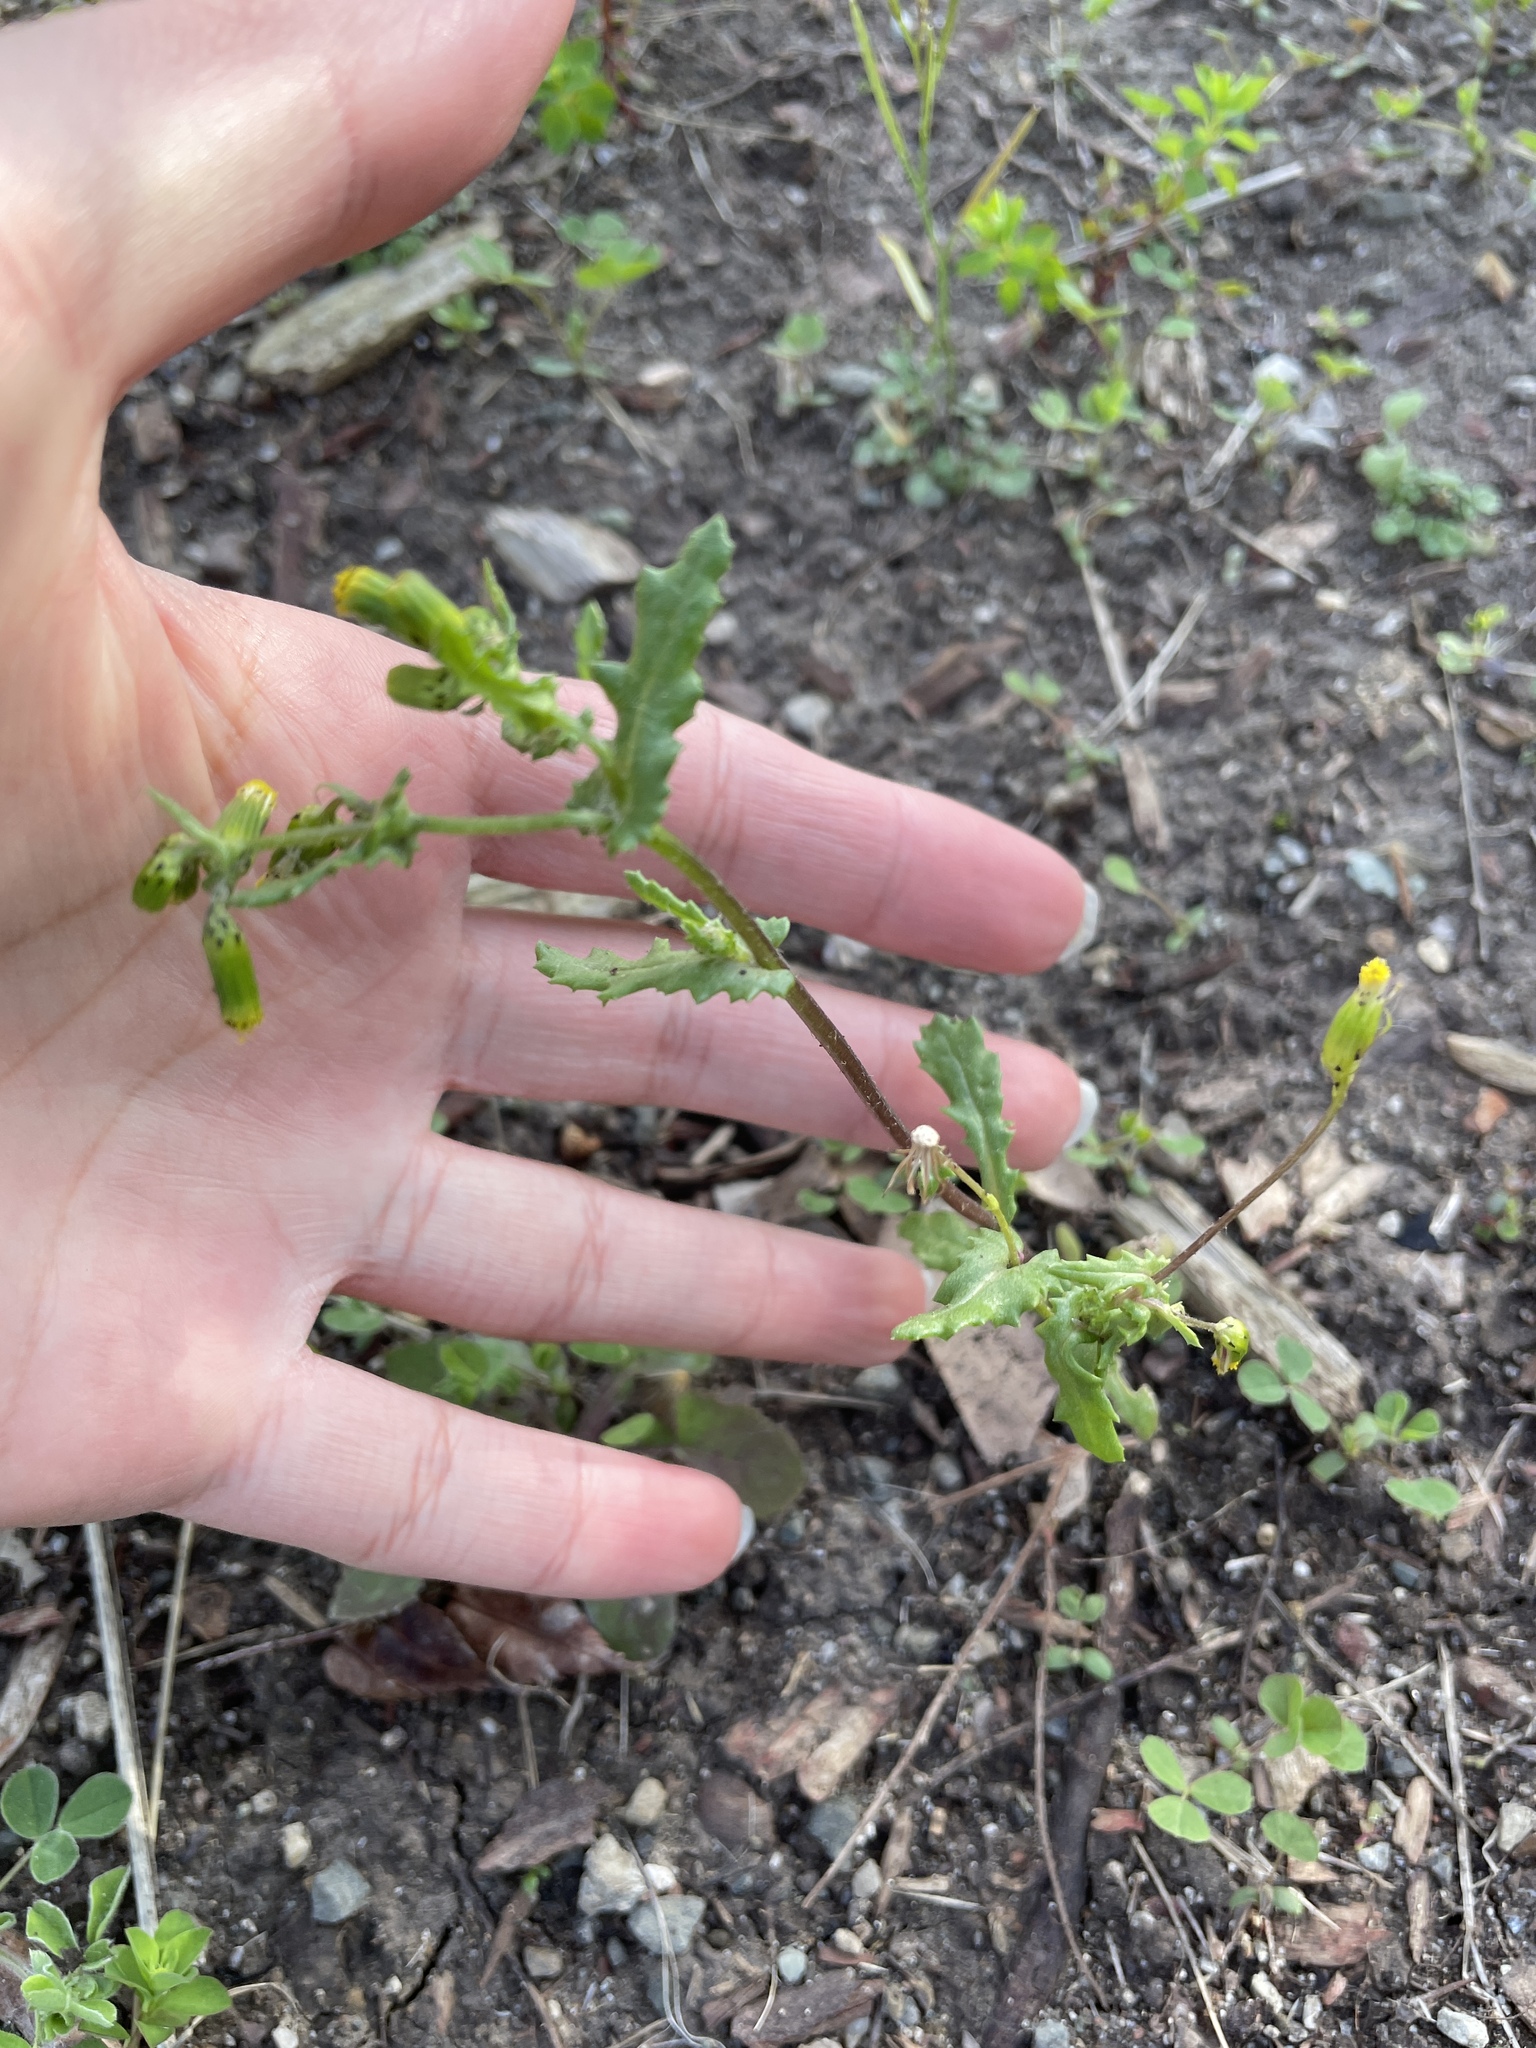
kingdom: Plantae
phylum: Tracheophyta
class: Magnoliopsida
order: Asterales
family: Asteraceae
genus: Senecio
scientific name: Senecio vulgaris
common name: Old-man-in-the-spring
